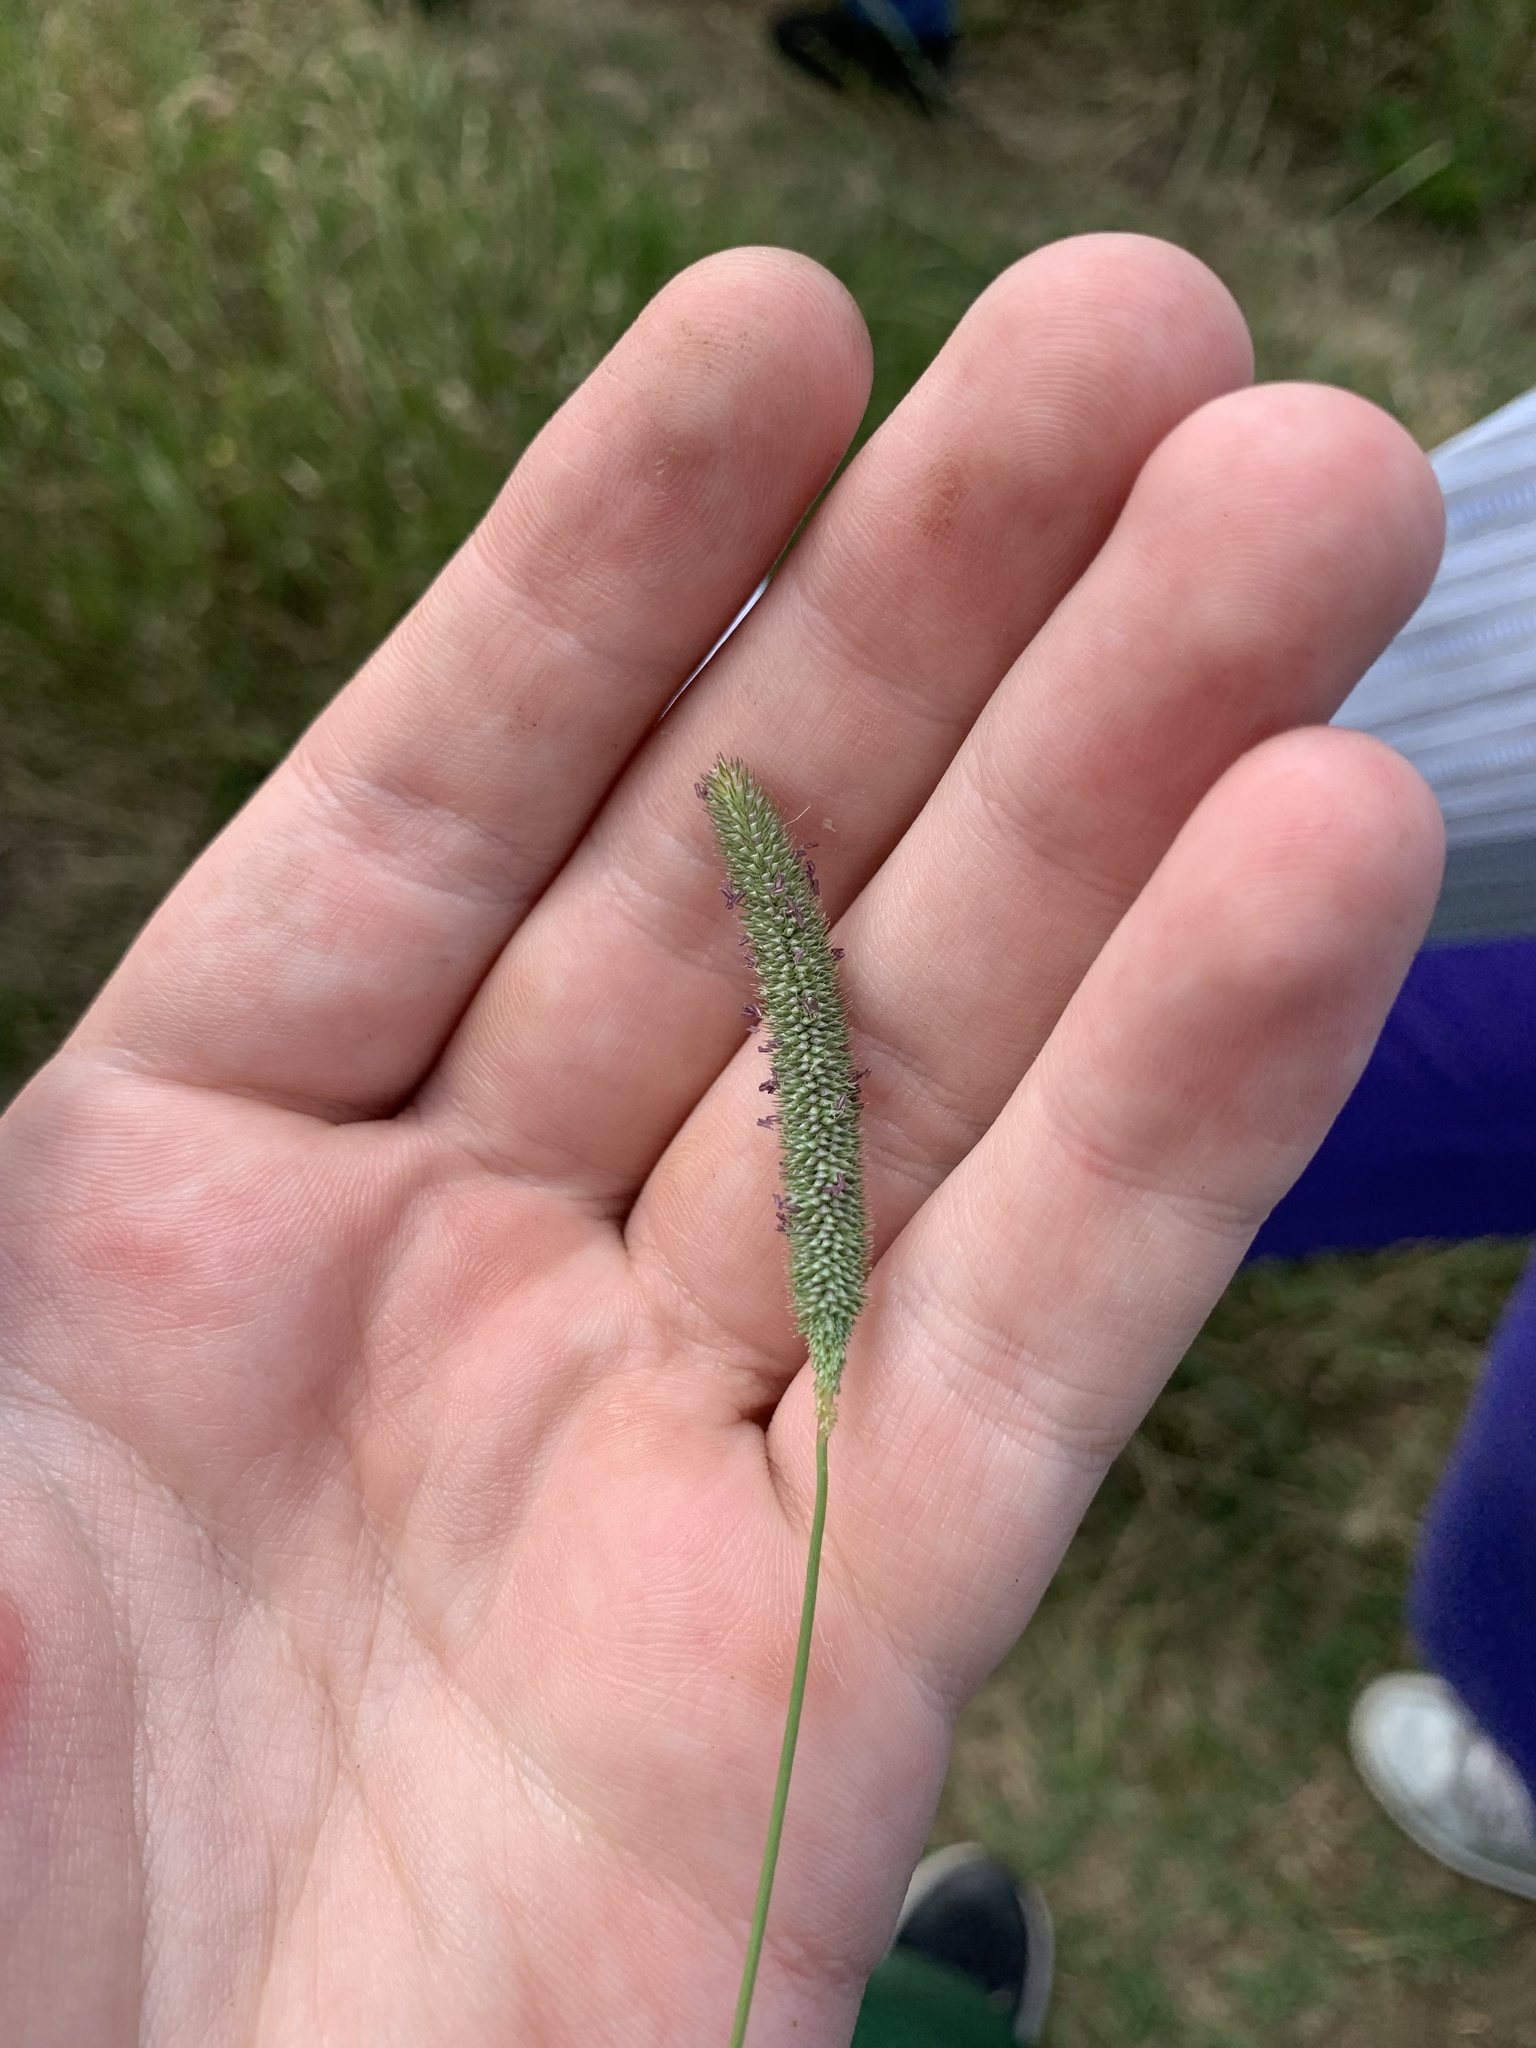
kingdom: Plantae
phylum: Tracheophyta
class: Liliopsida
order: Poales
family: Poaceae
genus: Phleum
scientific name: Phleum pratense
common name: Timothy grass
